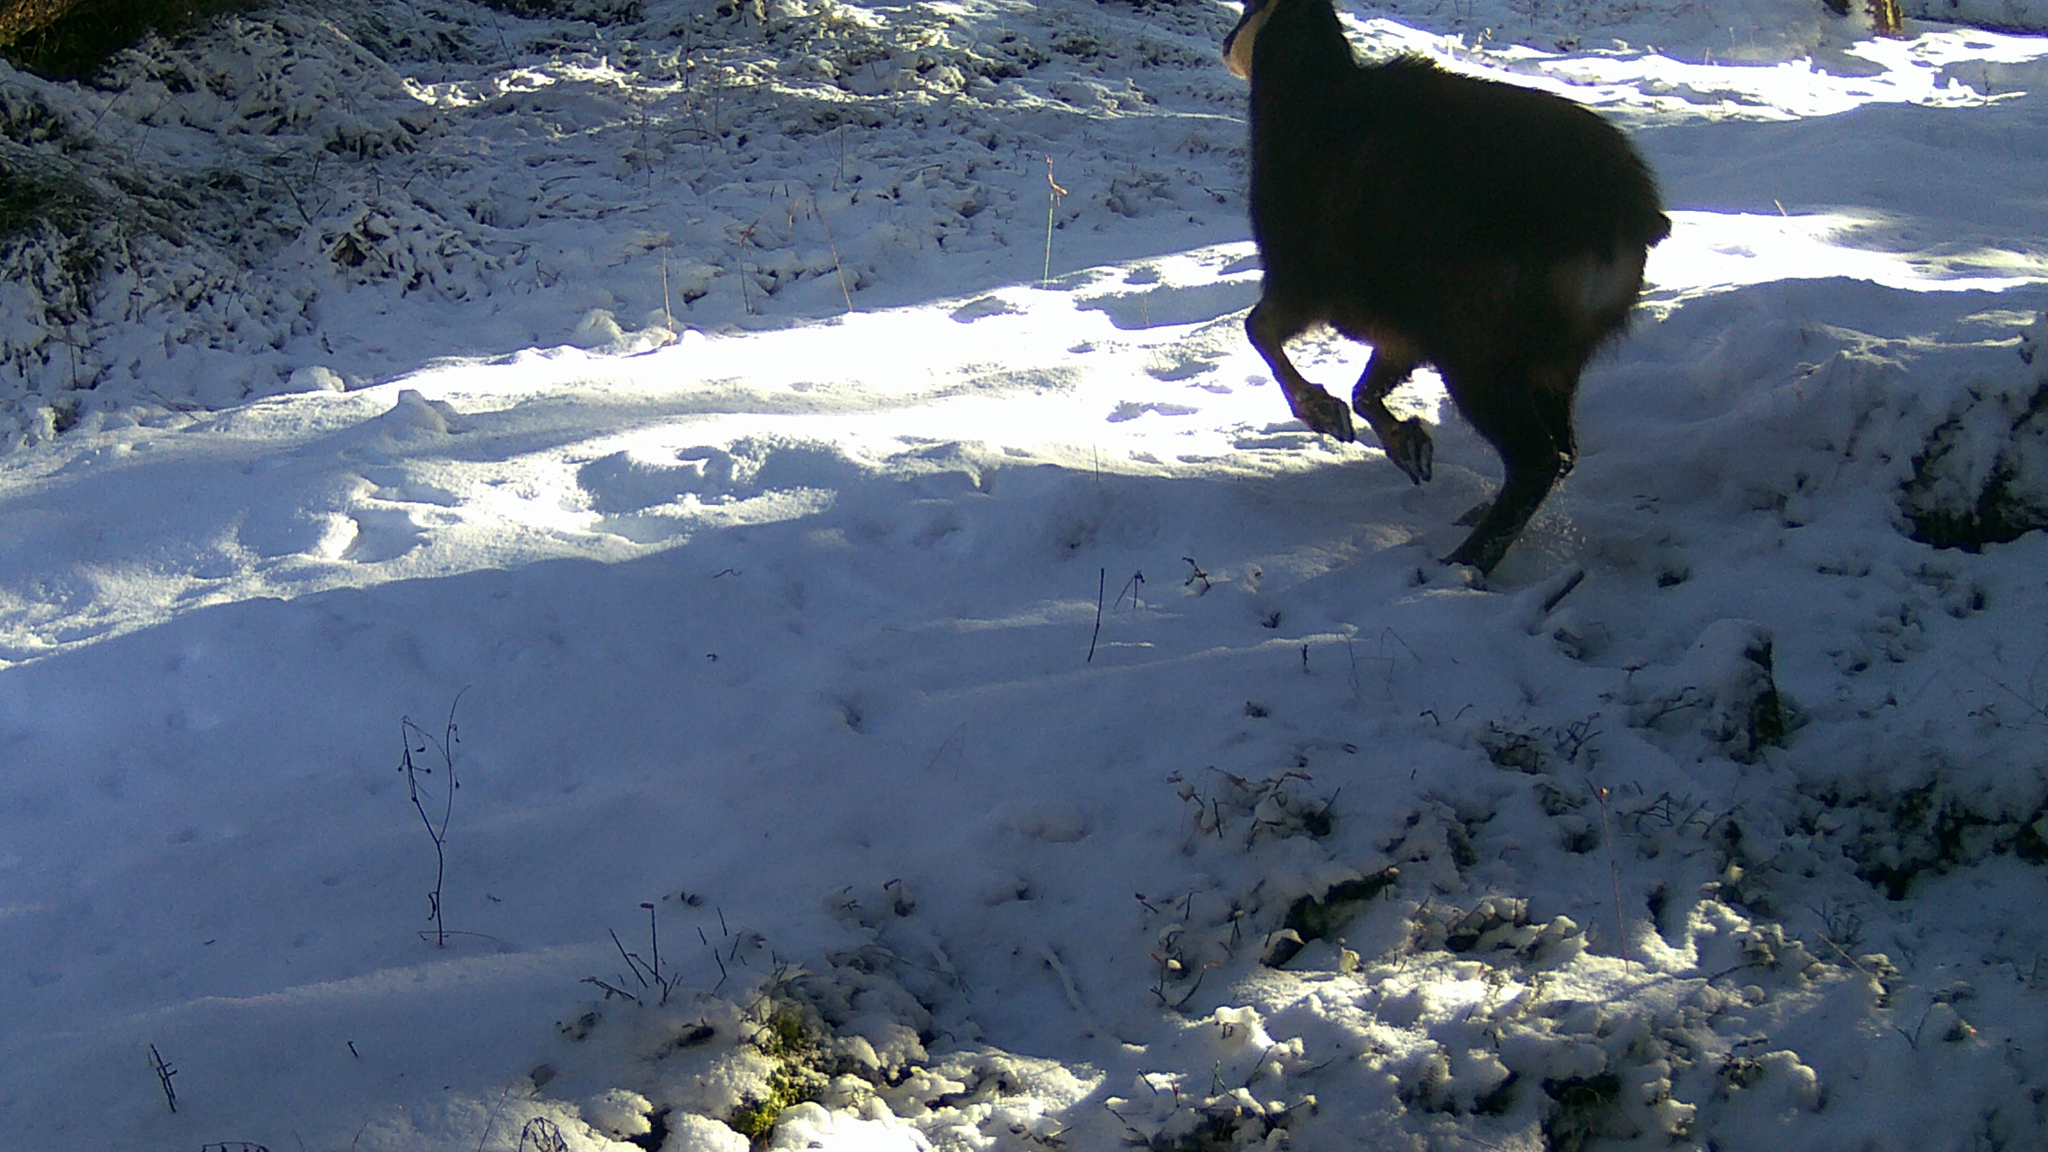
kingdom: Animalia
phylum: Chordata
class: Mammalia
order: Artiodactyla
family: Bovidae
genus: Rupicapra
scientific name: Rupicapra rupicapra
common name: Chamois
